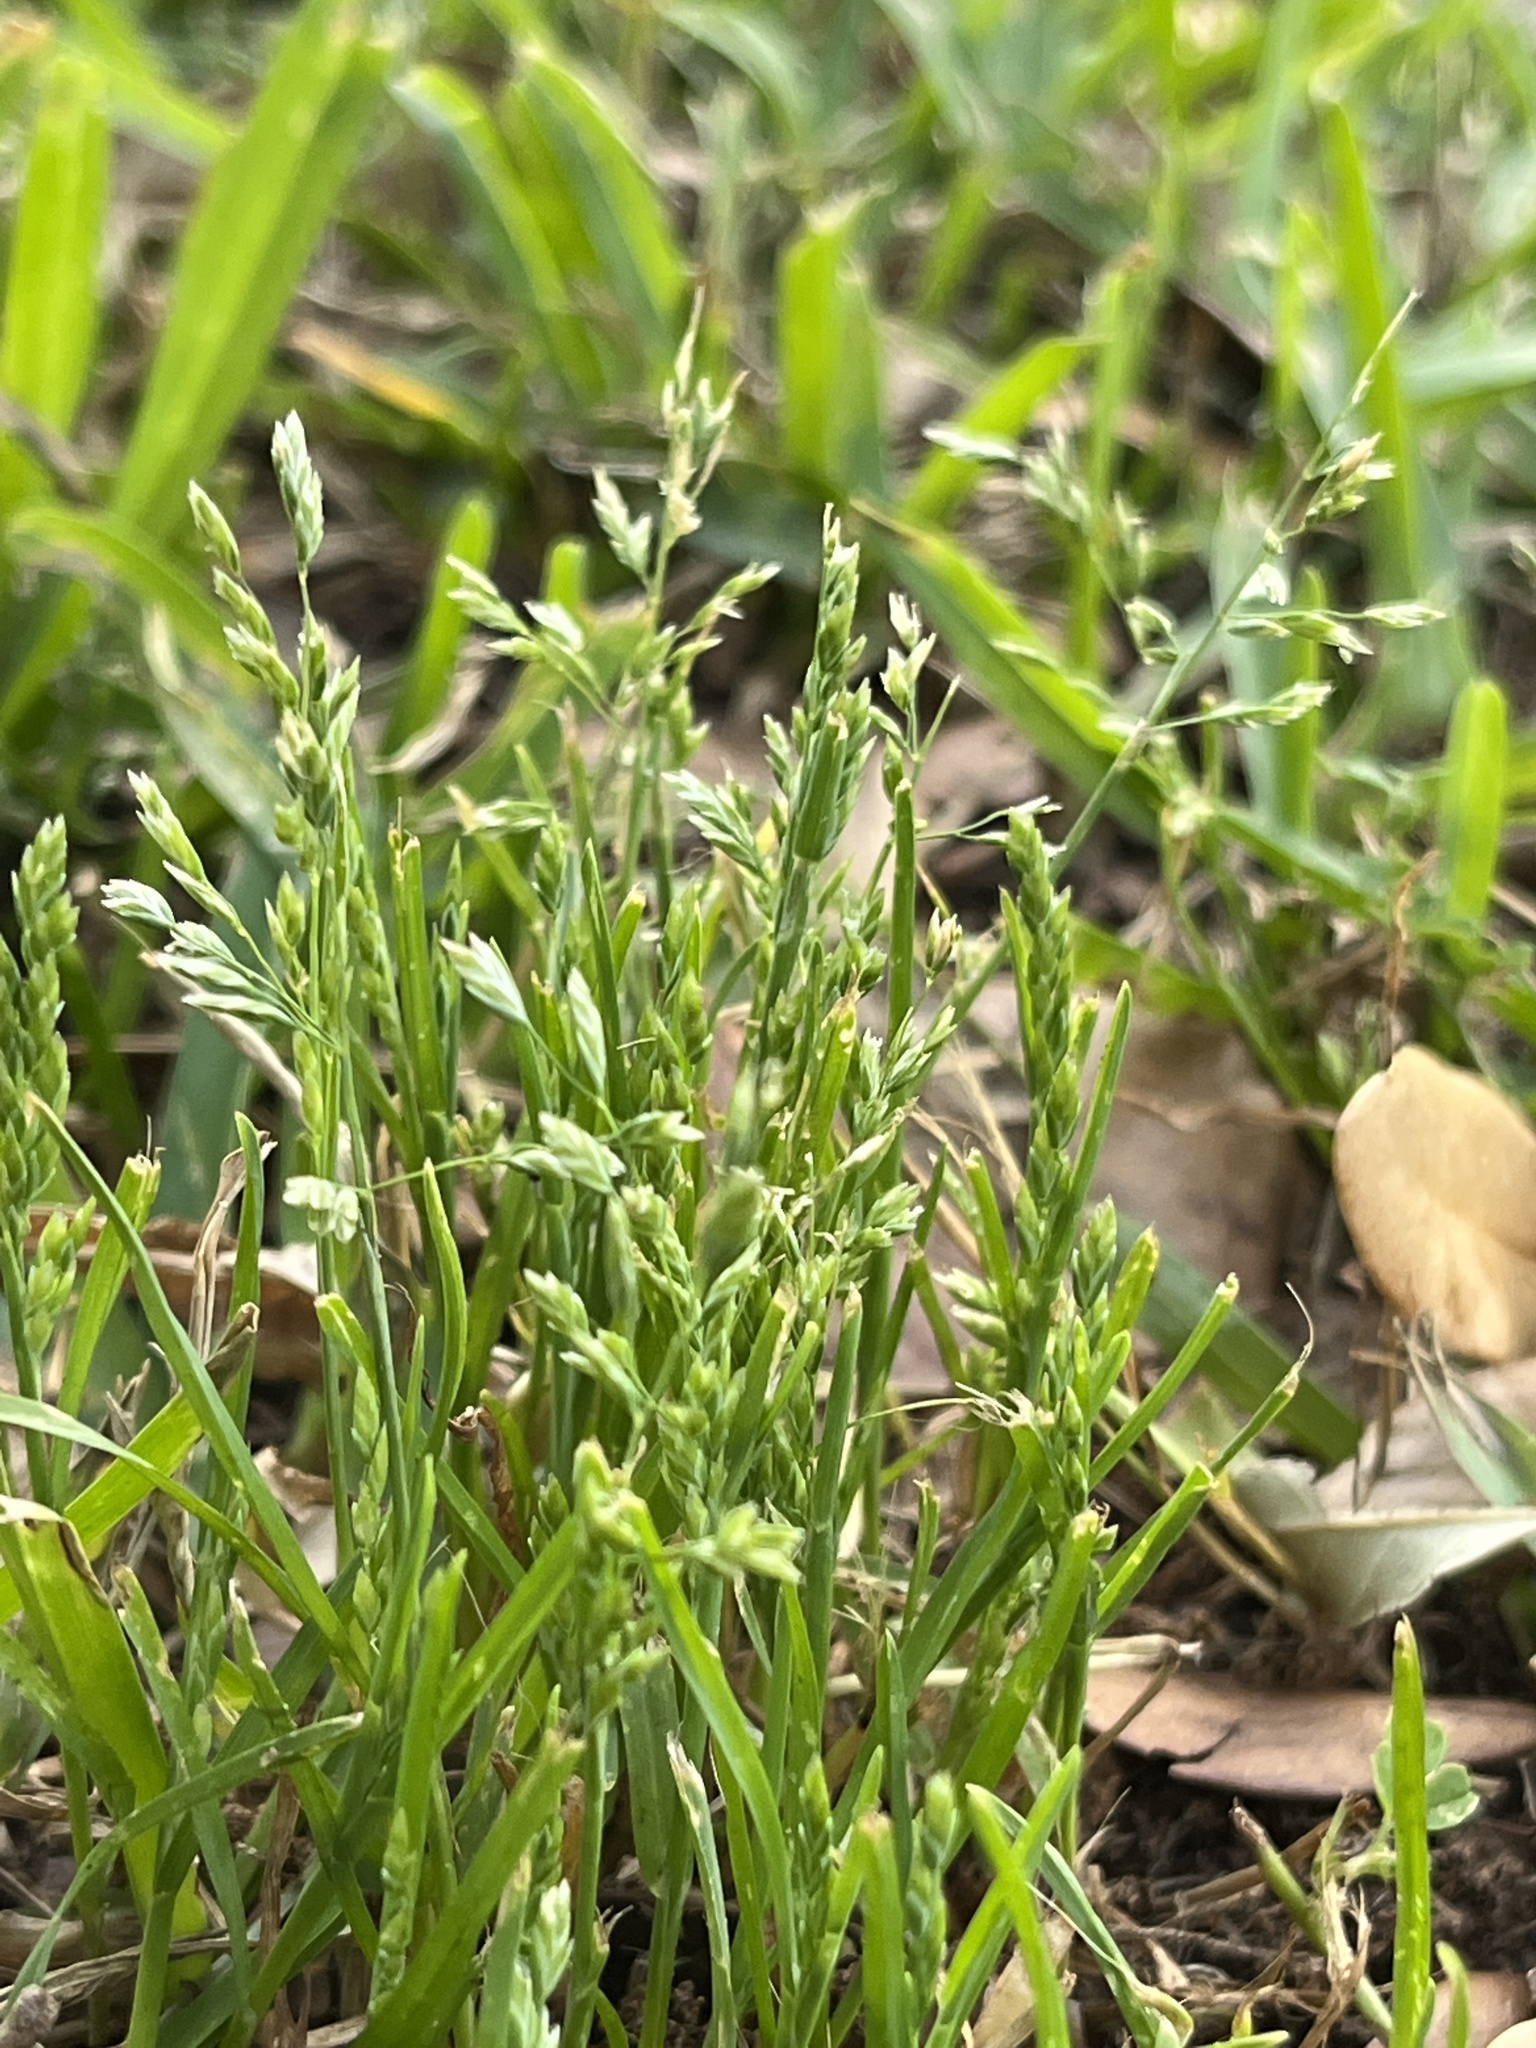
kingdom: Plantae
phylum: Tracheophyta
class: Liliopsida
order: Poales
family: Poaceae
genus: Poa
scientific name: Poa annua
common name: Annual bluegrass
